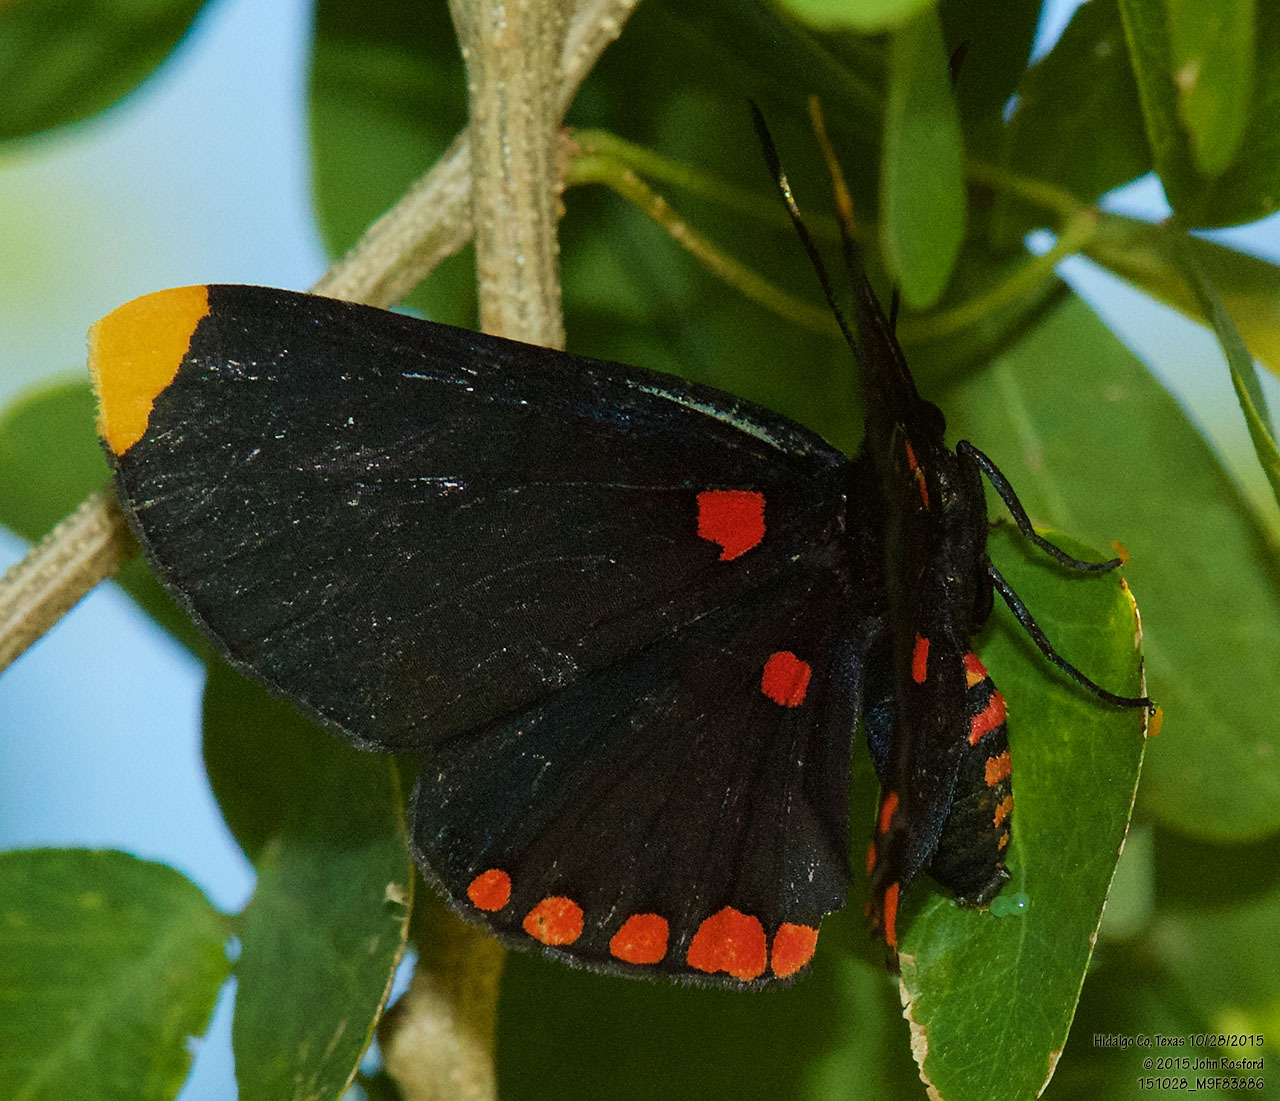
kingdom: Animalia
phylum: Arthropoda
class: Insecta
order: Lepidoptera
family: Lycaenidae
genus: Melanis
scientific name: Melanis pixe
